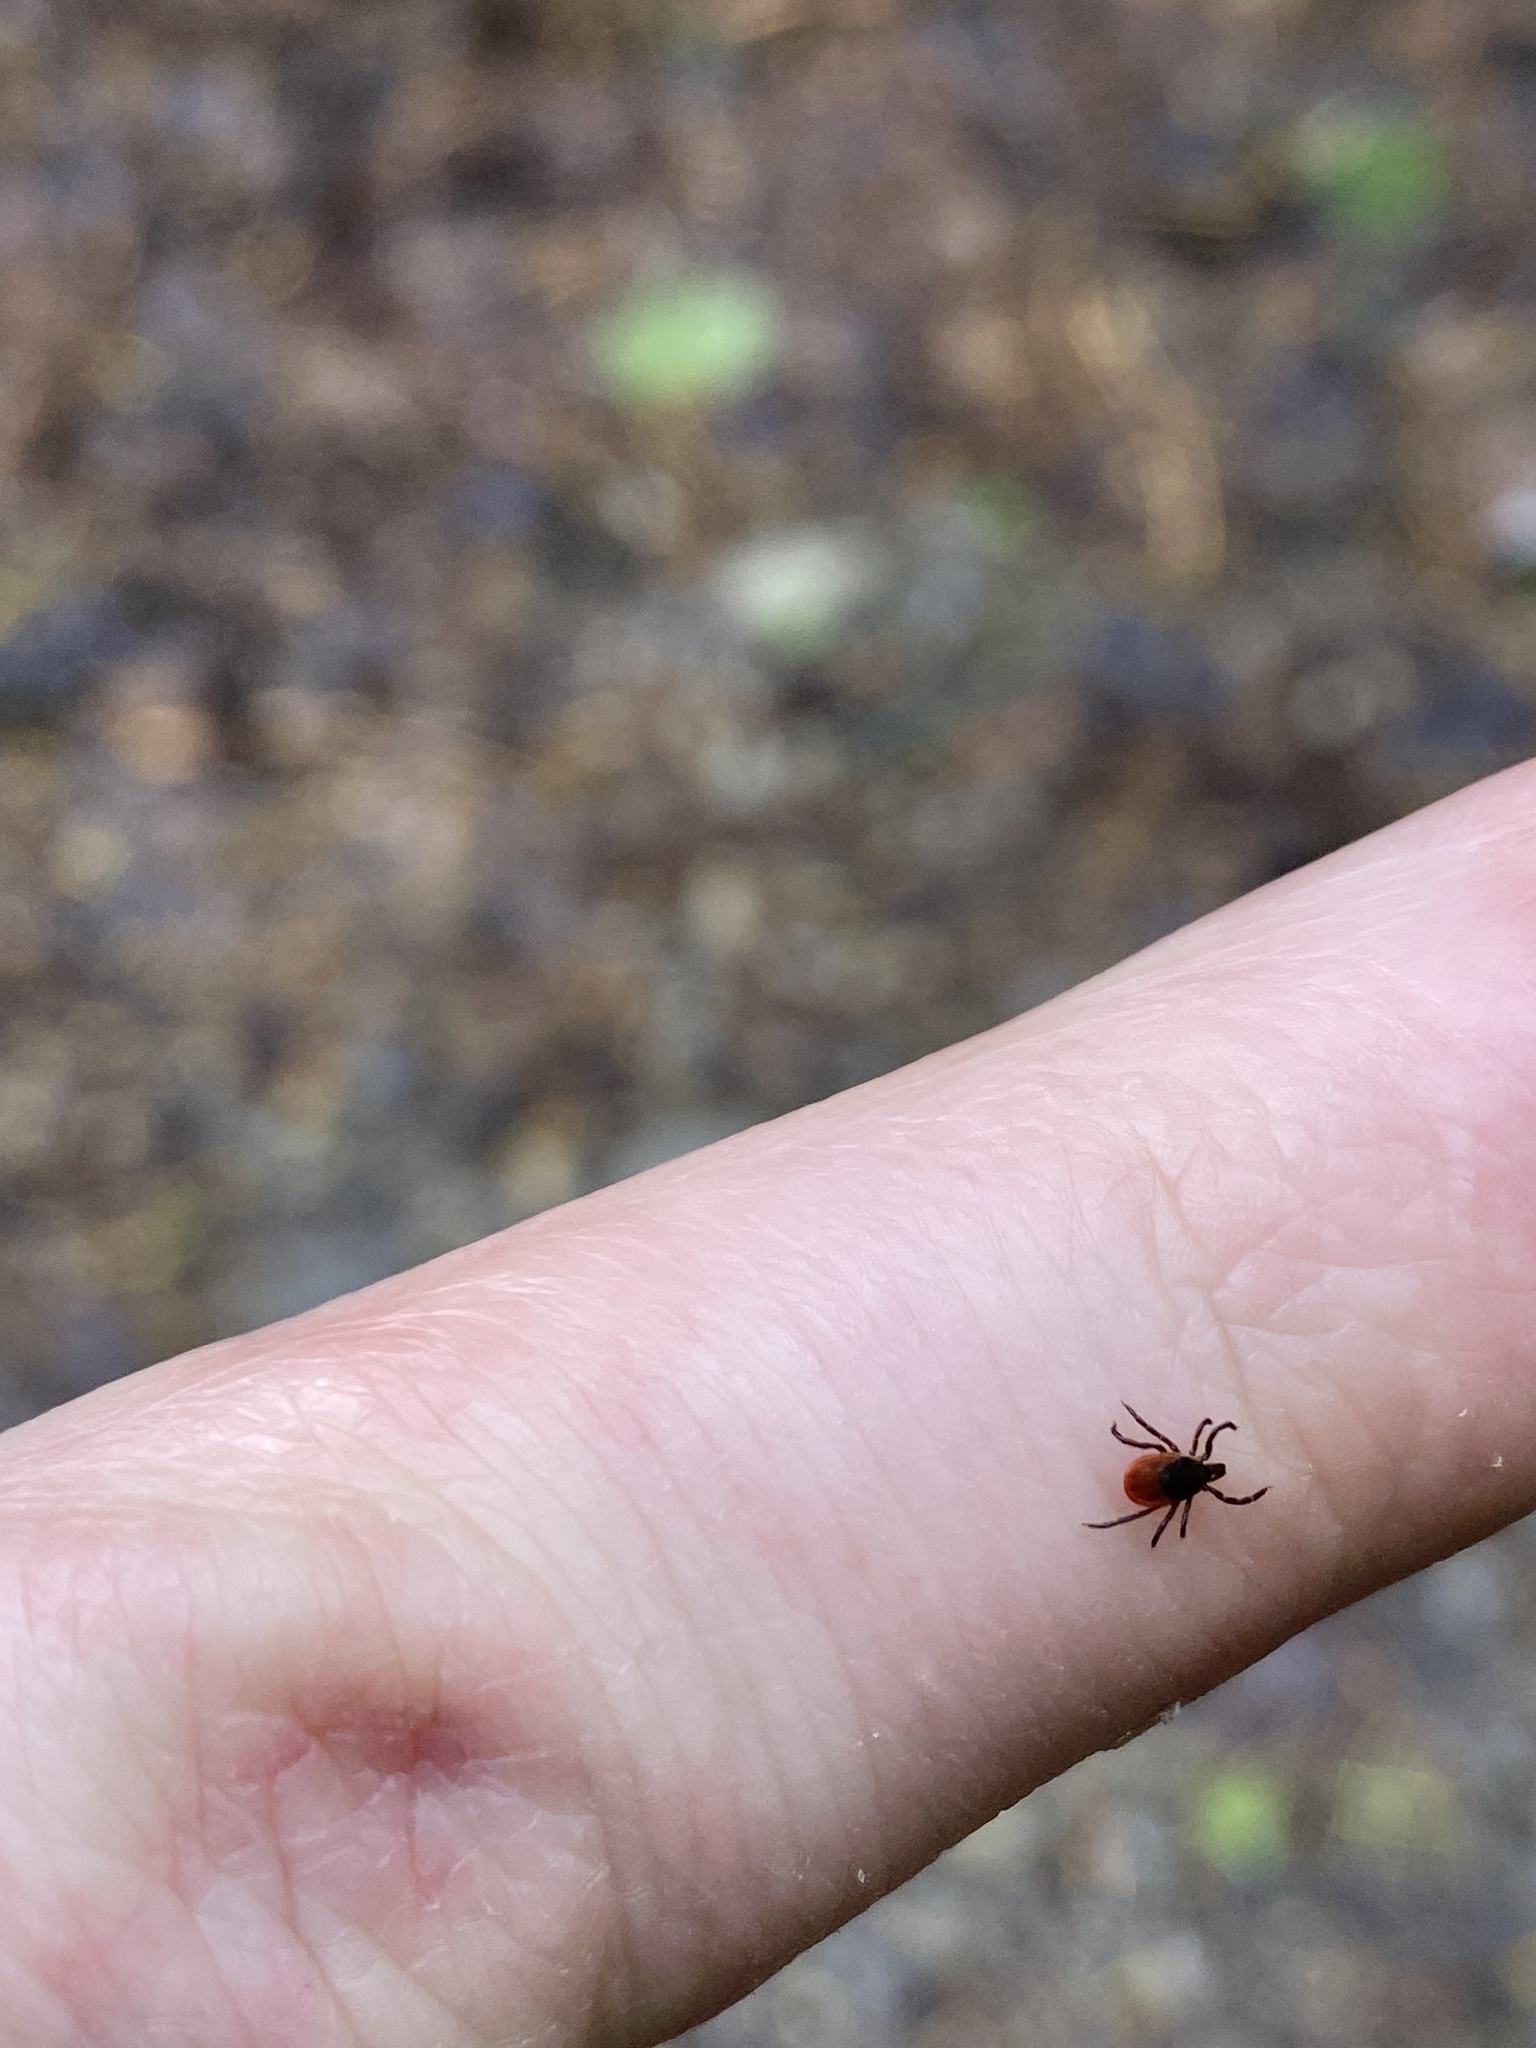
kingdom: Animalia
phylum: Arthropoda
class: Arachnida
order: Ixodida
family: Ixodidae
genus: Ixodes
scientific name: Ixodes scapularis
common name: Black legged tick
